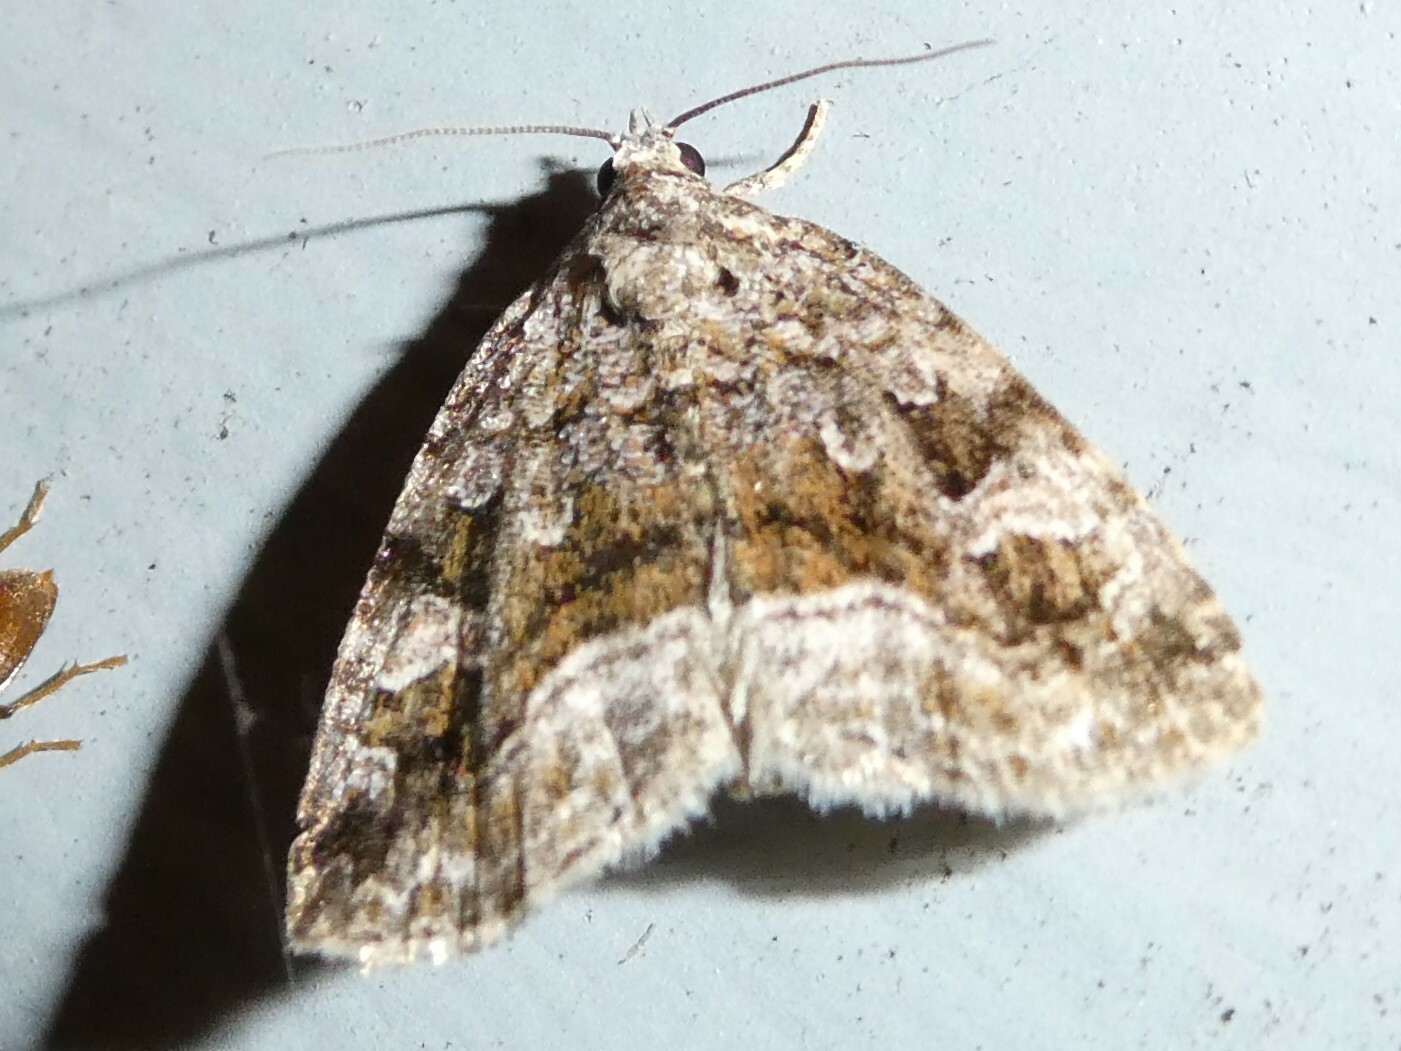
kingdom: Animalia
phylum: Arthropoda
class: Insecta
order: Lepidoptera
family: Noctuidae
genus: Protodeltote
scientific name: Protodeltote muscosula
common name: Large mossy glyph
